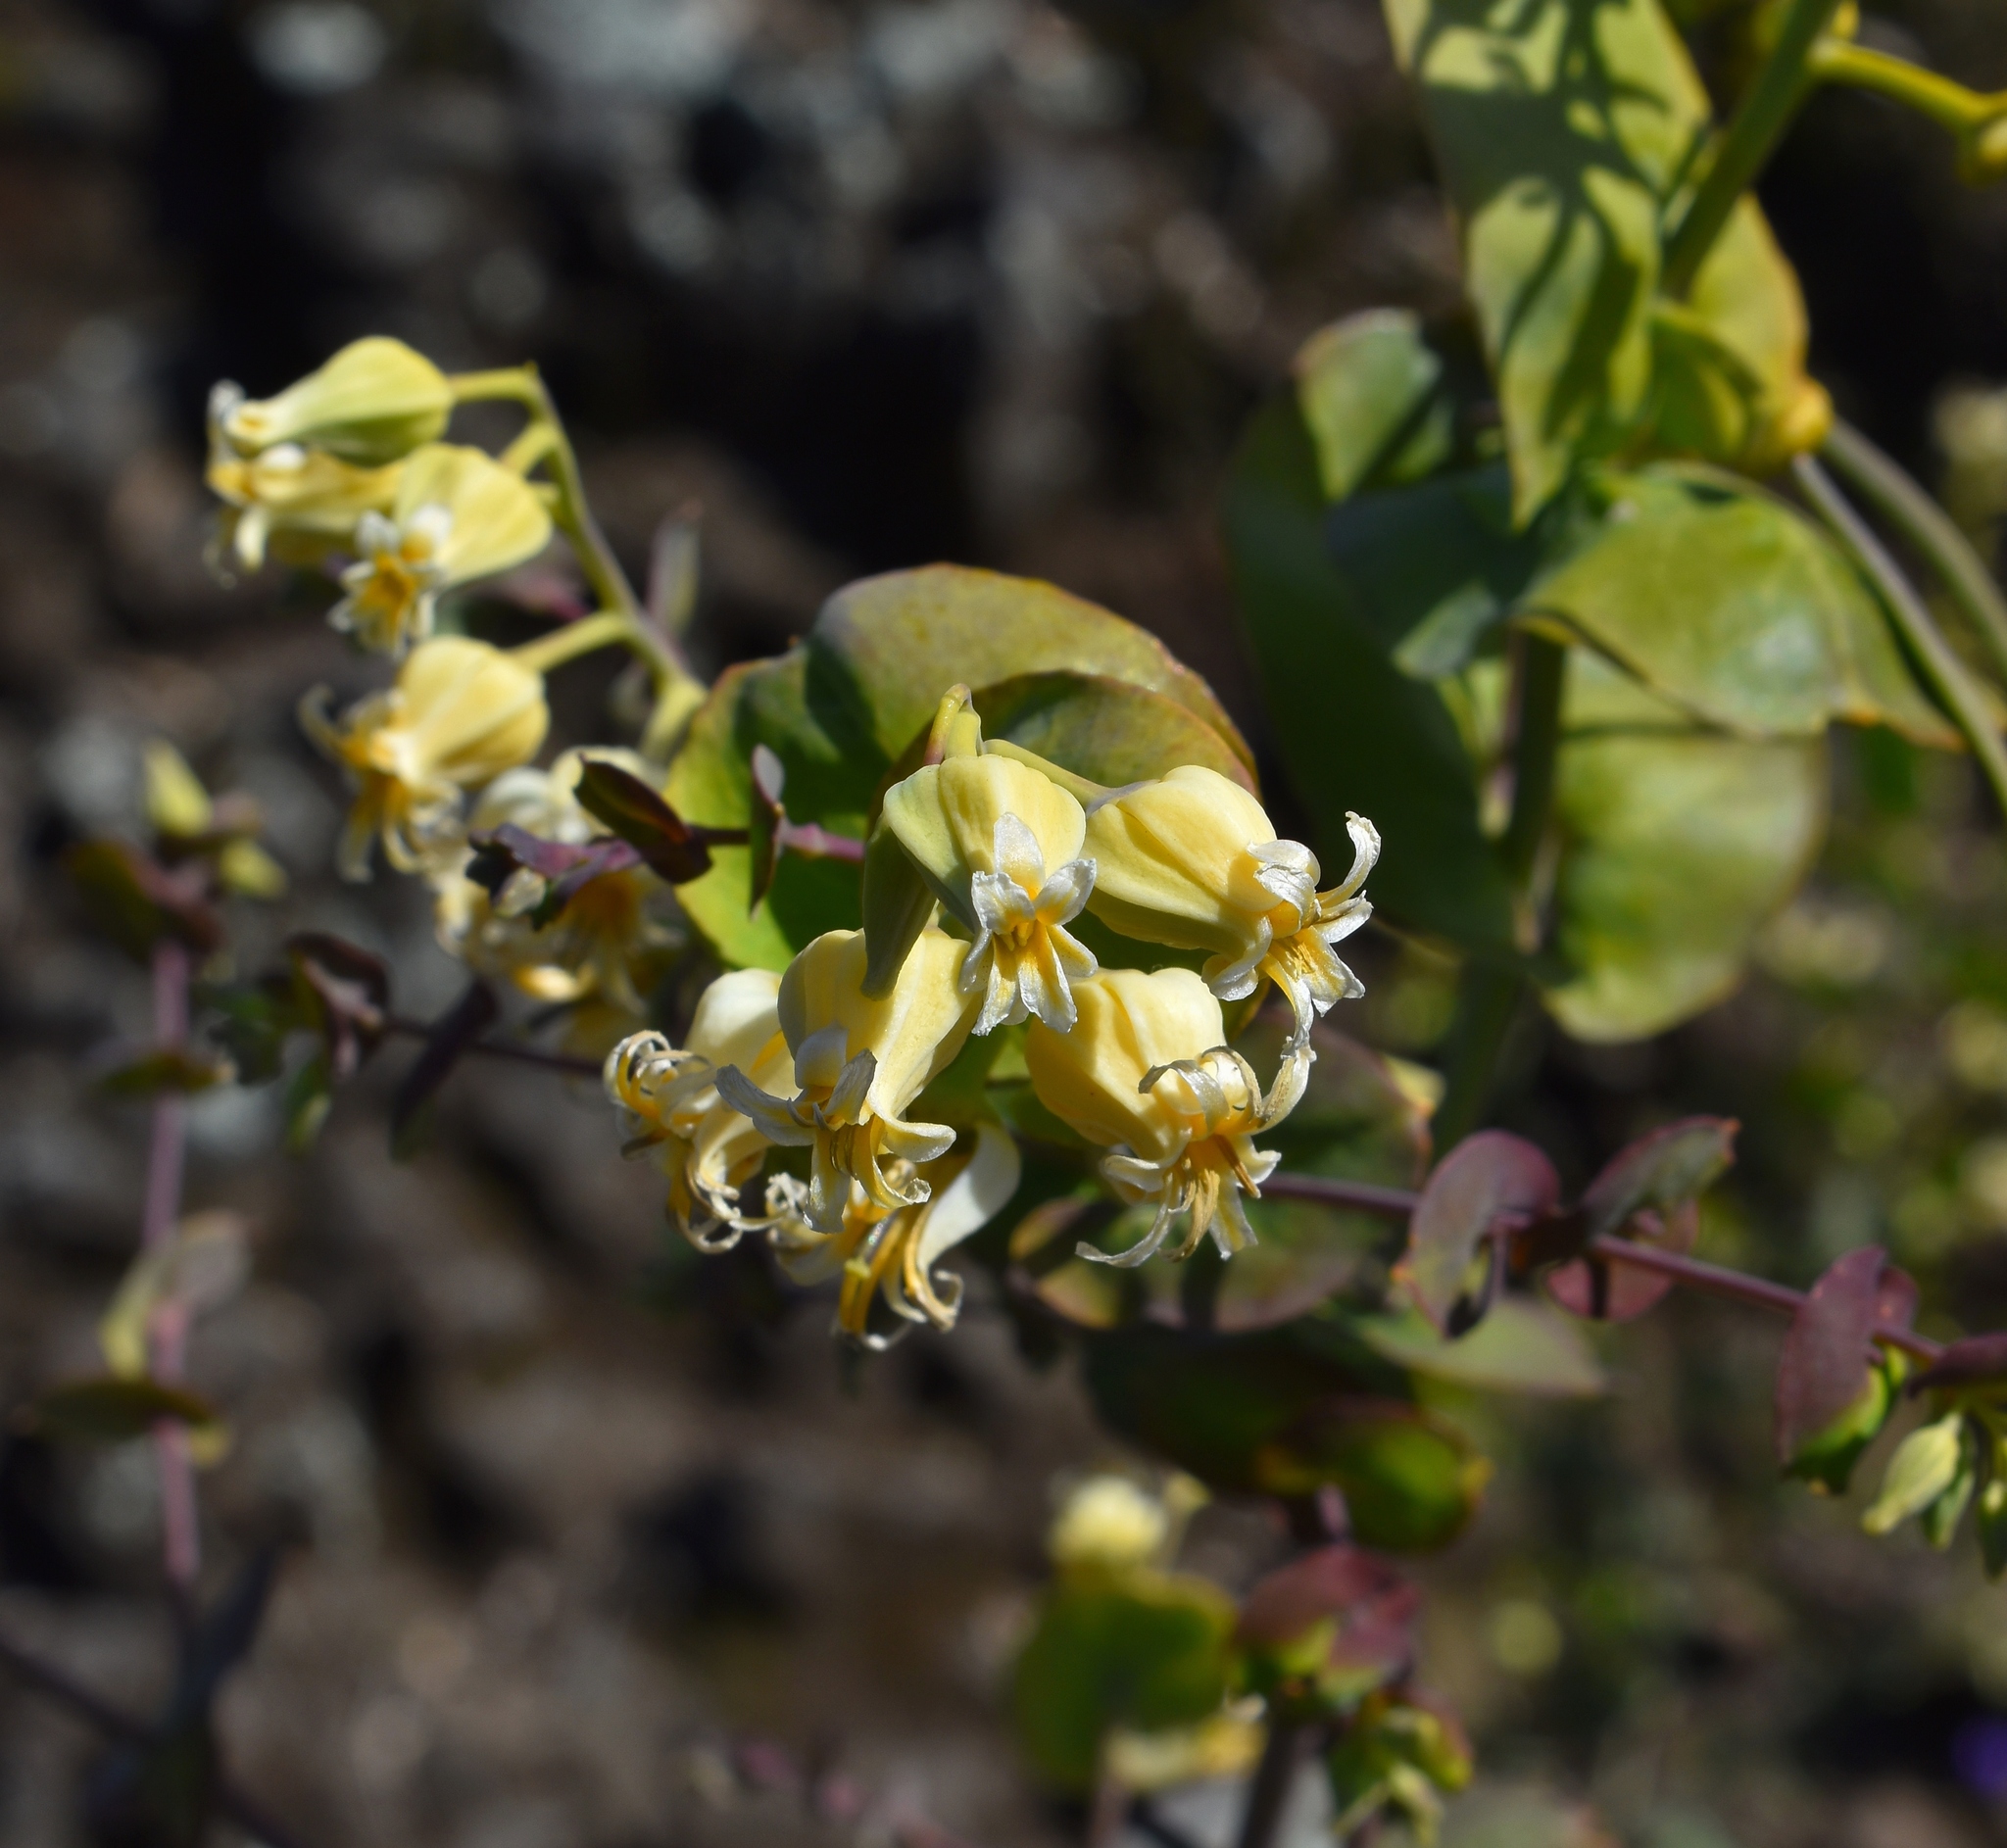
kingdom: Plantae
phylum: Tracheophyta
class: Magnoliopsida
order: Brassicales
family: Brassicaceae
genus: Streptanthus
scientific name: Streptanthus tortuosus
